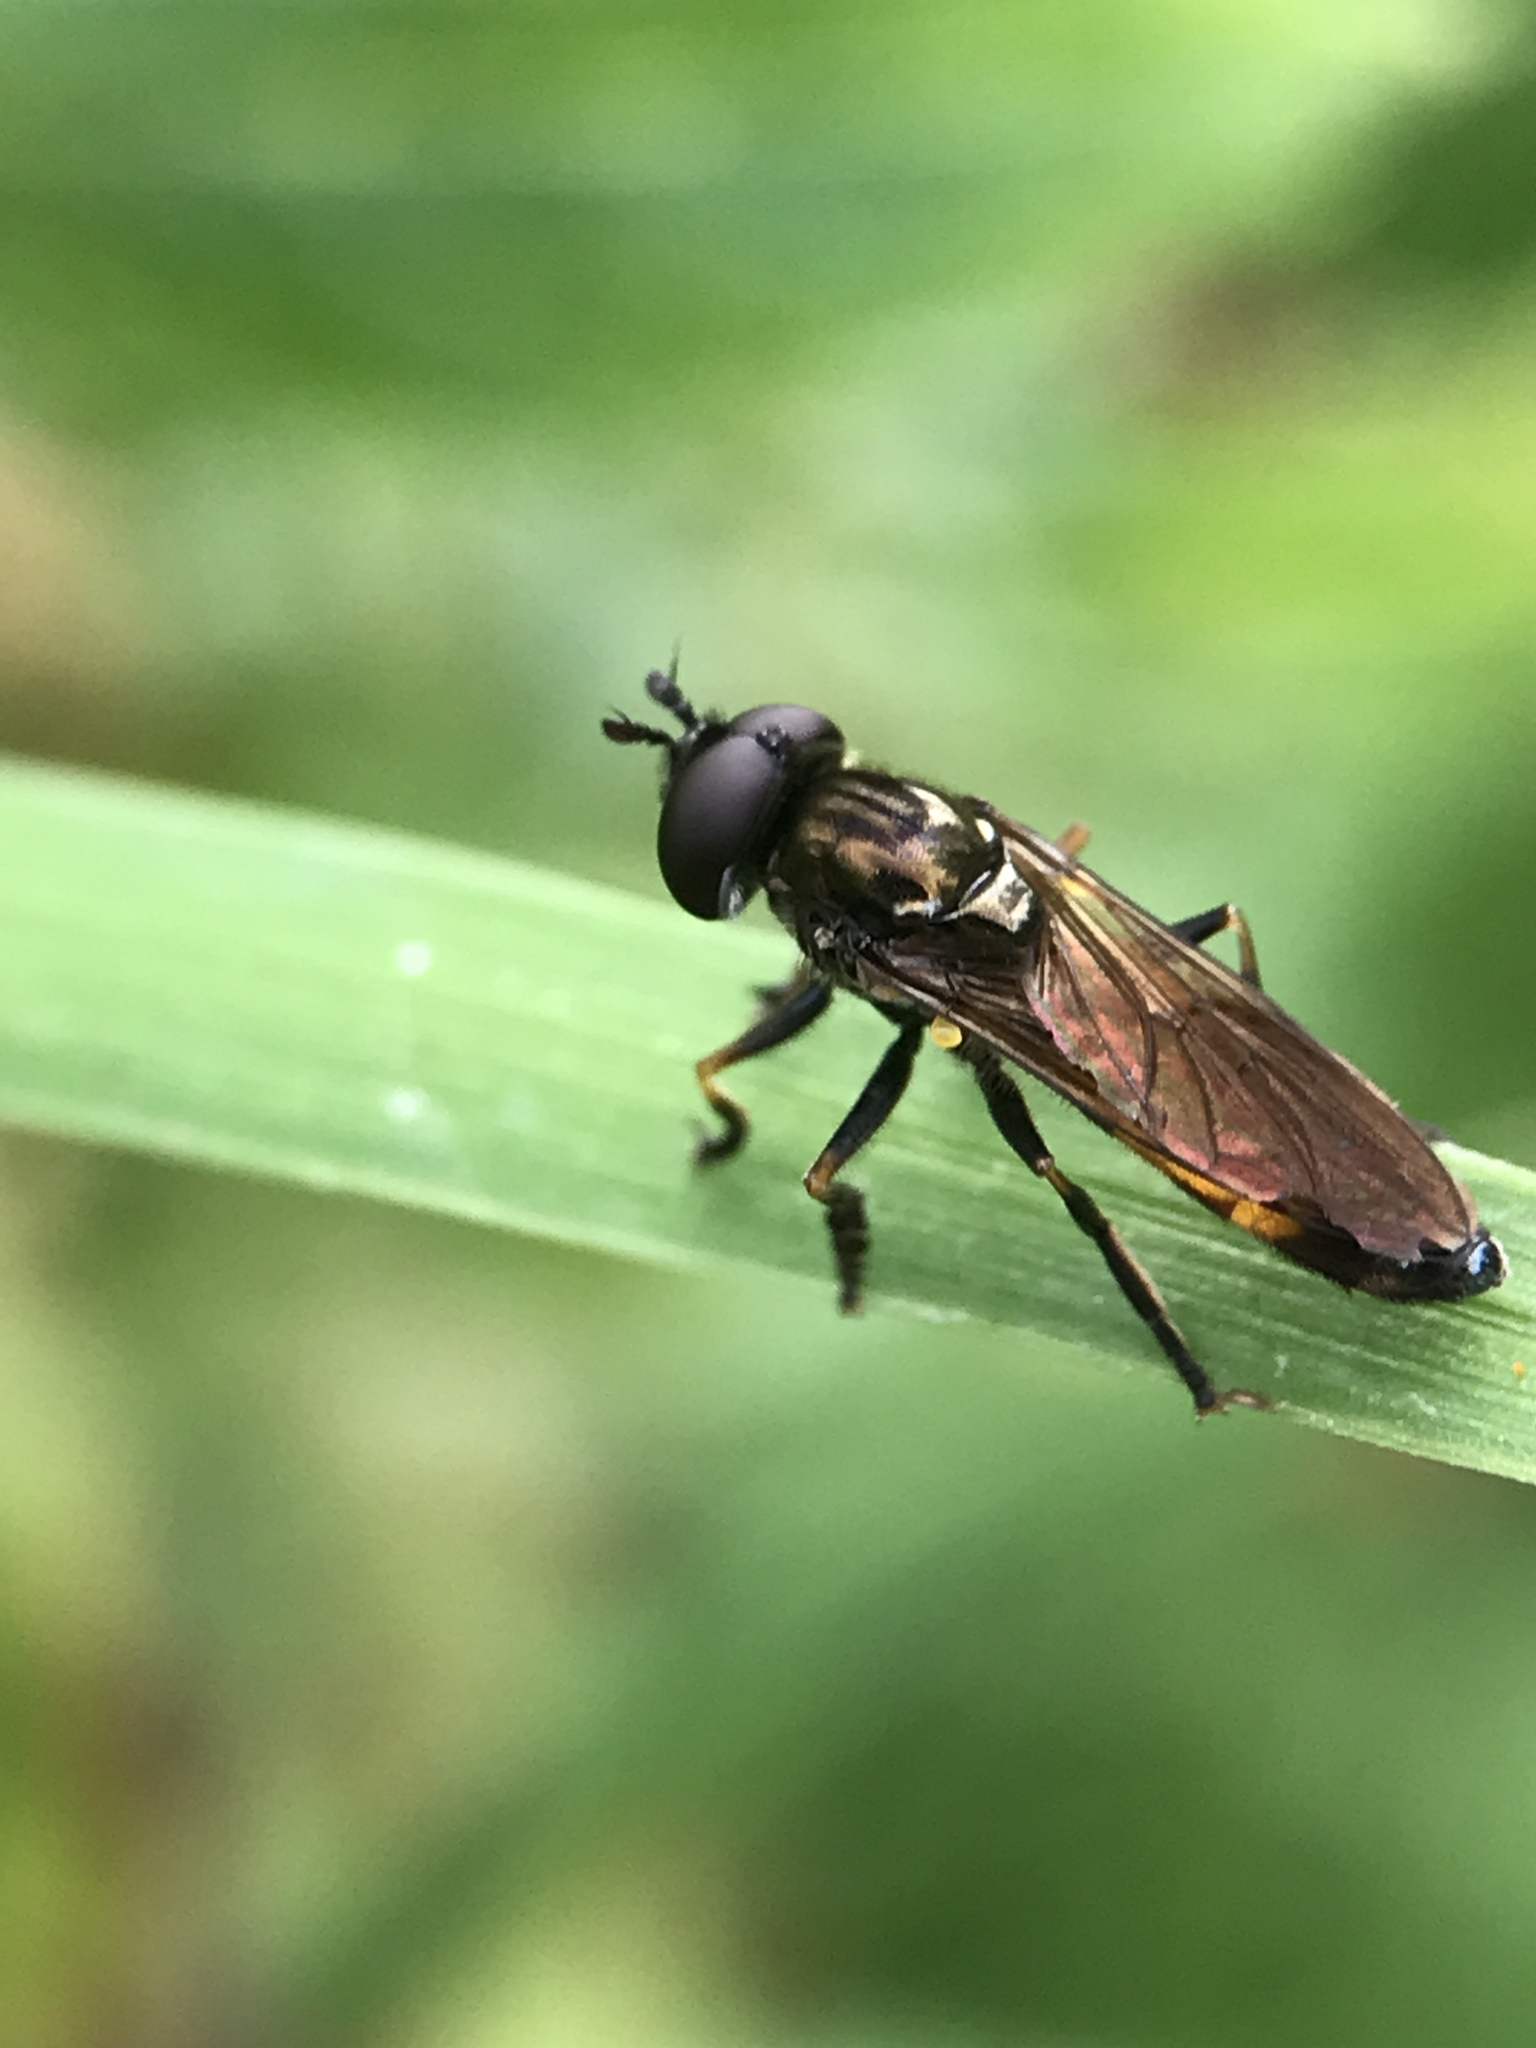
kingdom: Animalia
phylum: Arthropoda
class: Insecta
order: Diptera
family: Syrphidae
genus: Pyrophaena
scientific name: Pyrophaena granditarsa
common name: Hornhand sedgesitter
